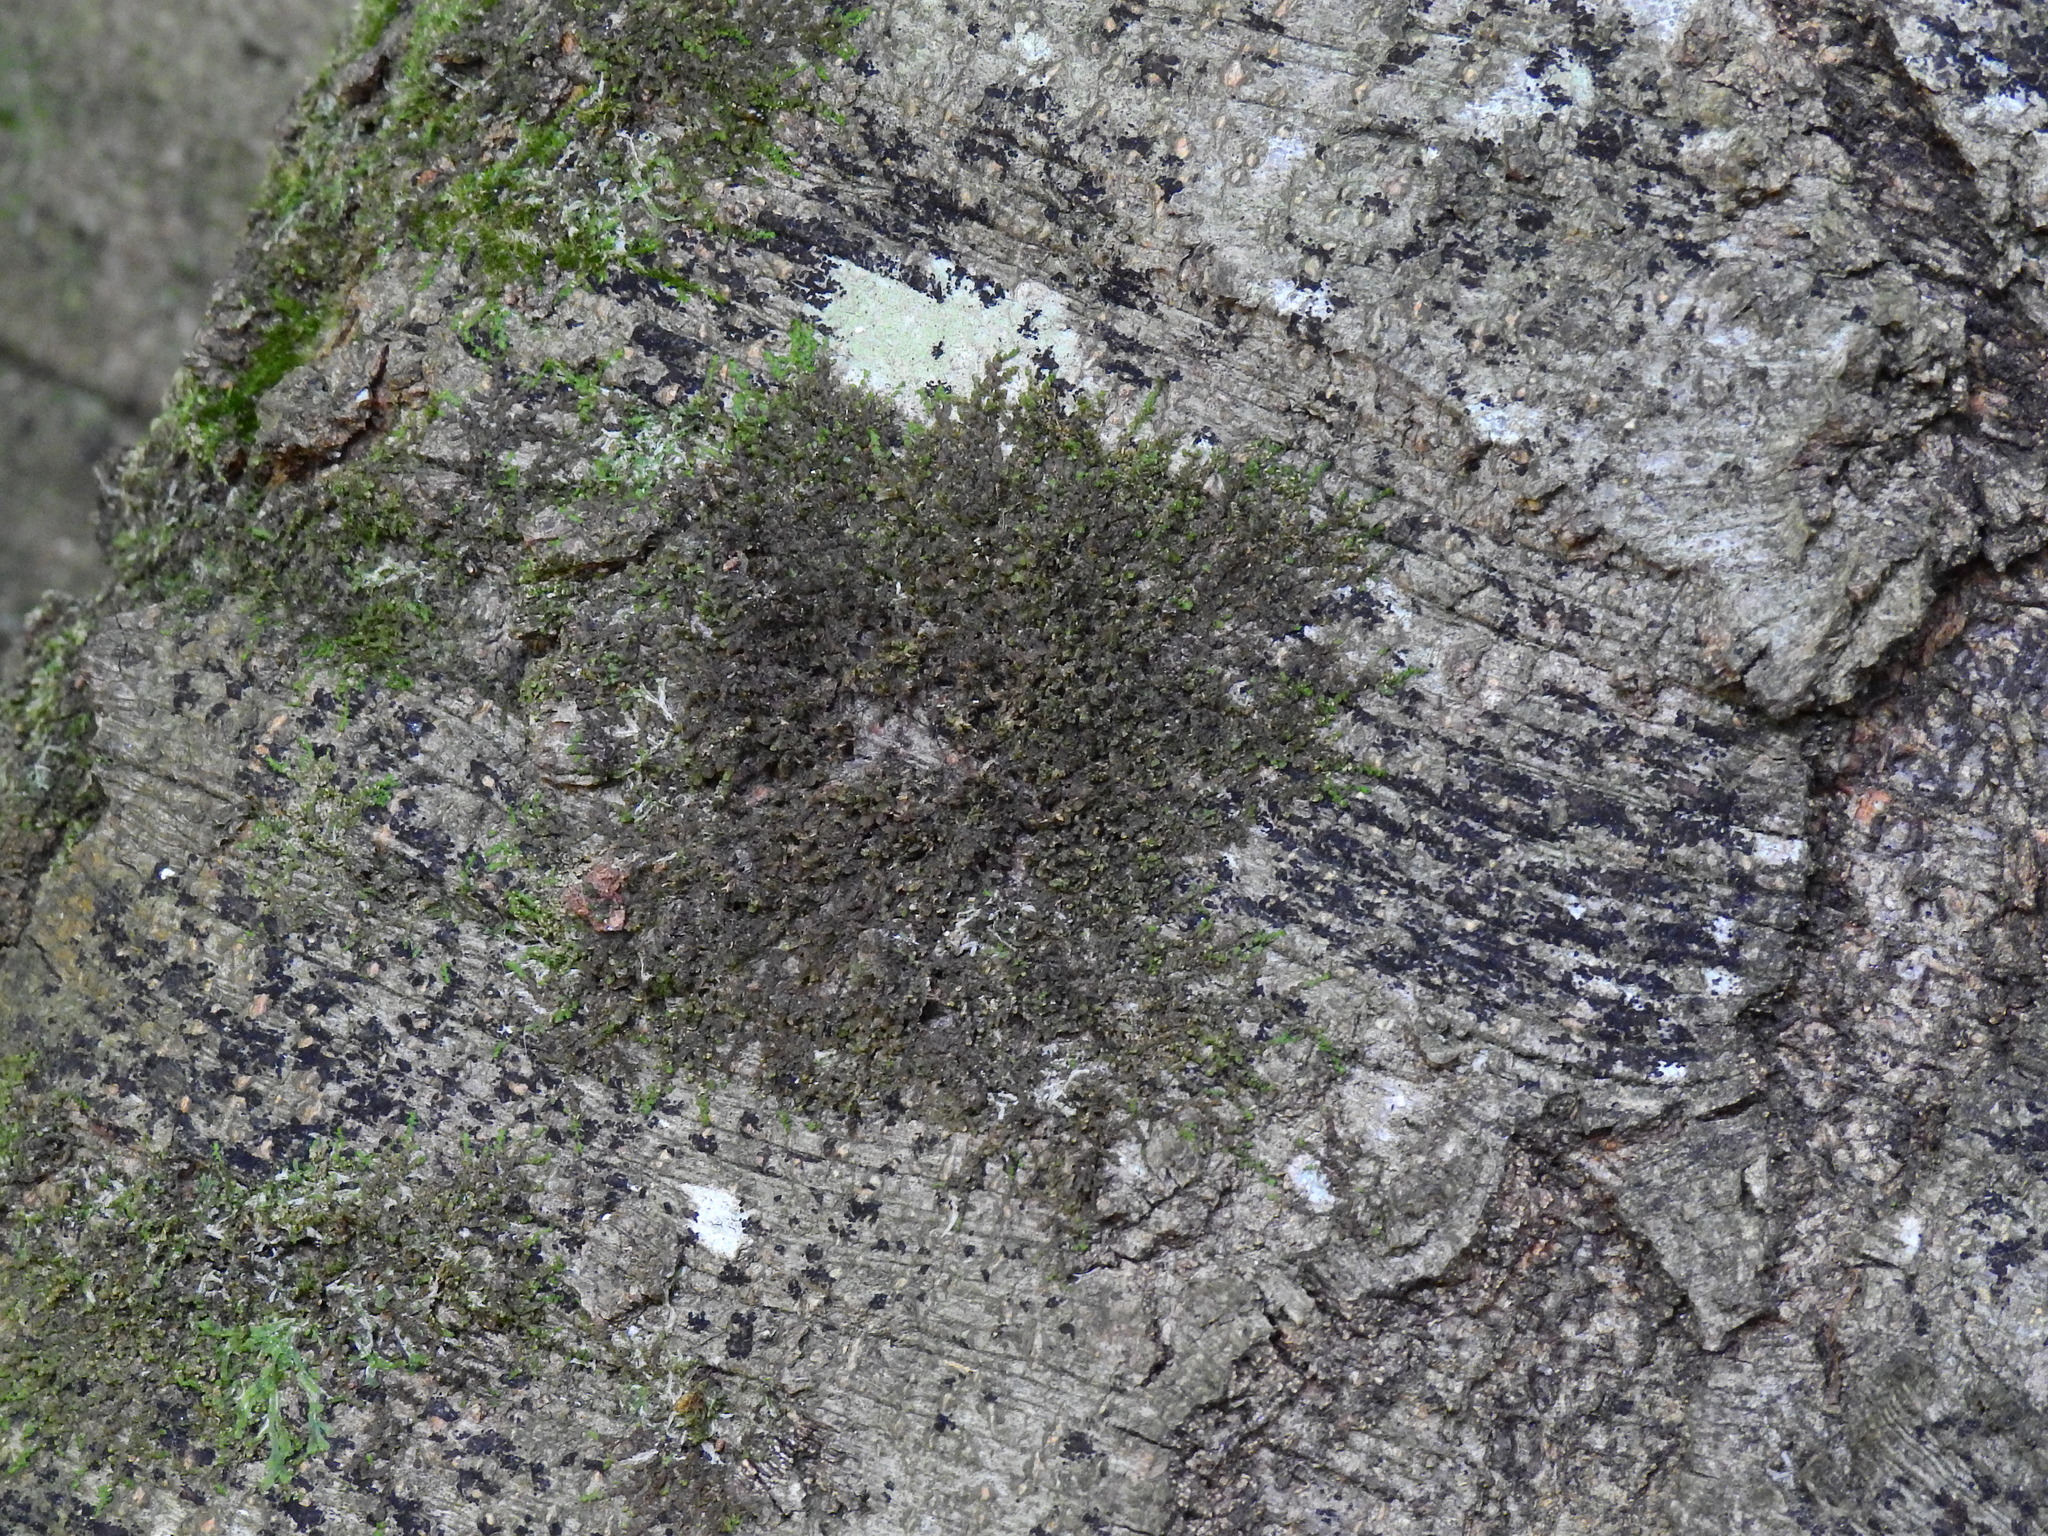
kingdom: Plantae
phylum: Marchantiophyta
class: Jungermanniopsida
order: Porellales
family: Frullaniaceae
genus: Frullania
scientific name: Frullania dilatata
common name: Dilated scalewort
